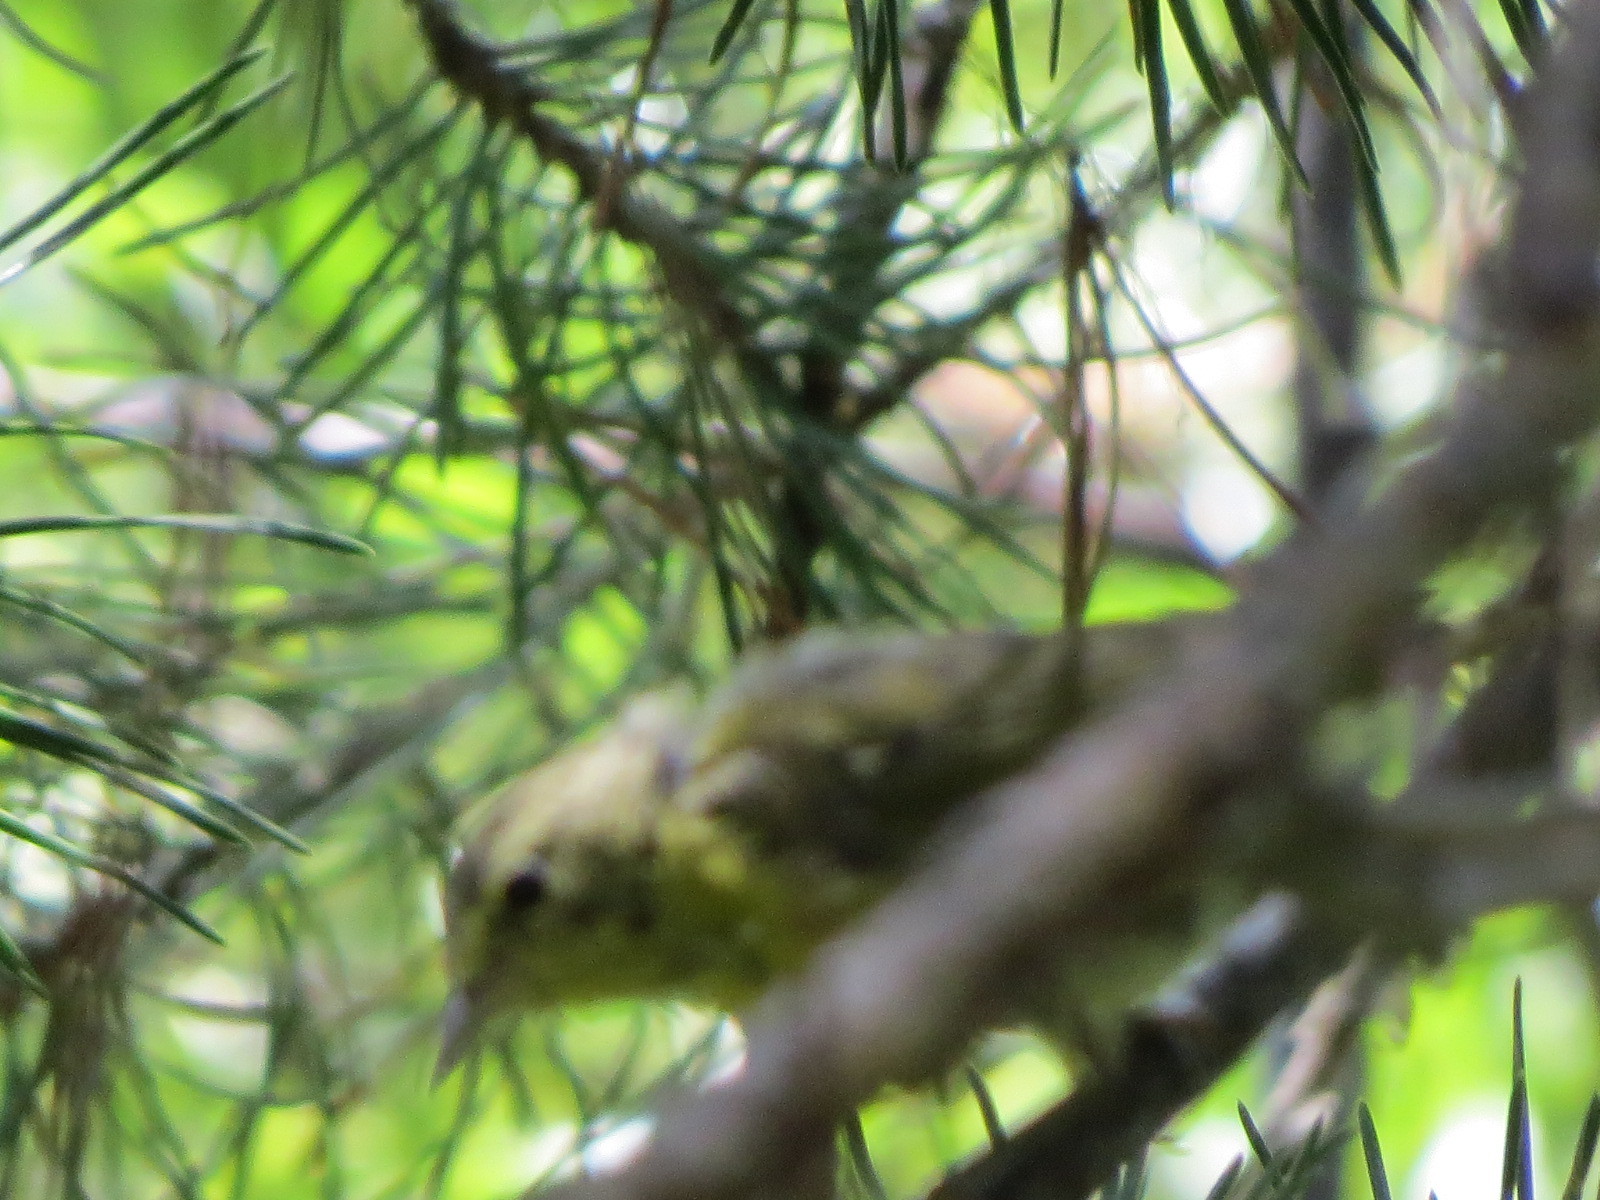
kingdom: Animalia
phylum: Chordata
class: Aves
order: Passeriformes
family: Parulidae
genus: Leiothlypis
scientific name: Leiothlypis celata
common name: Orange-crowned warbler
